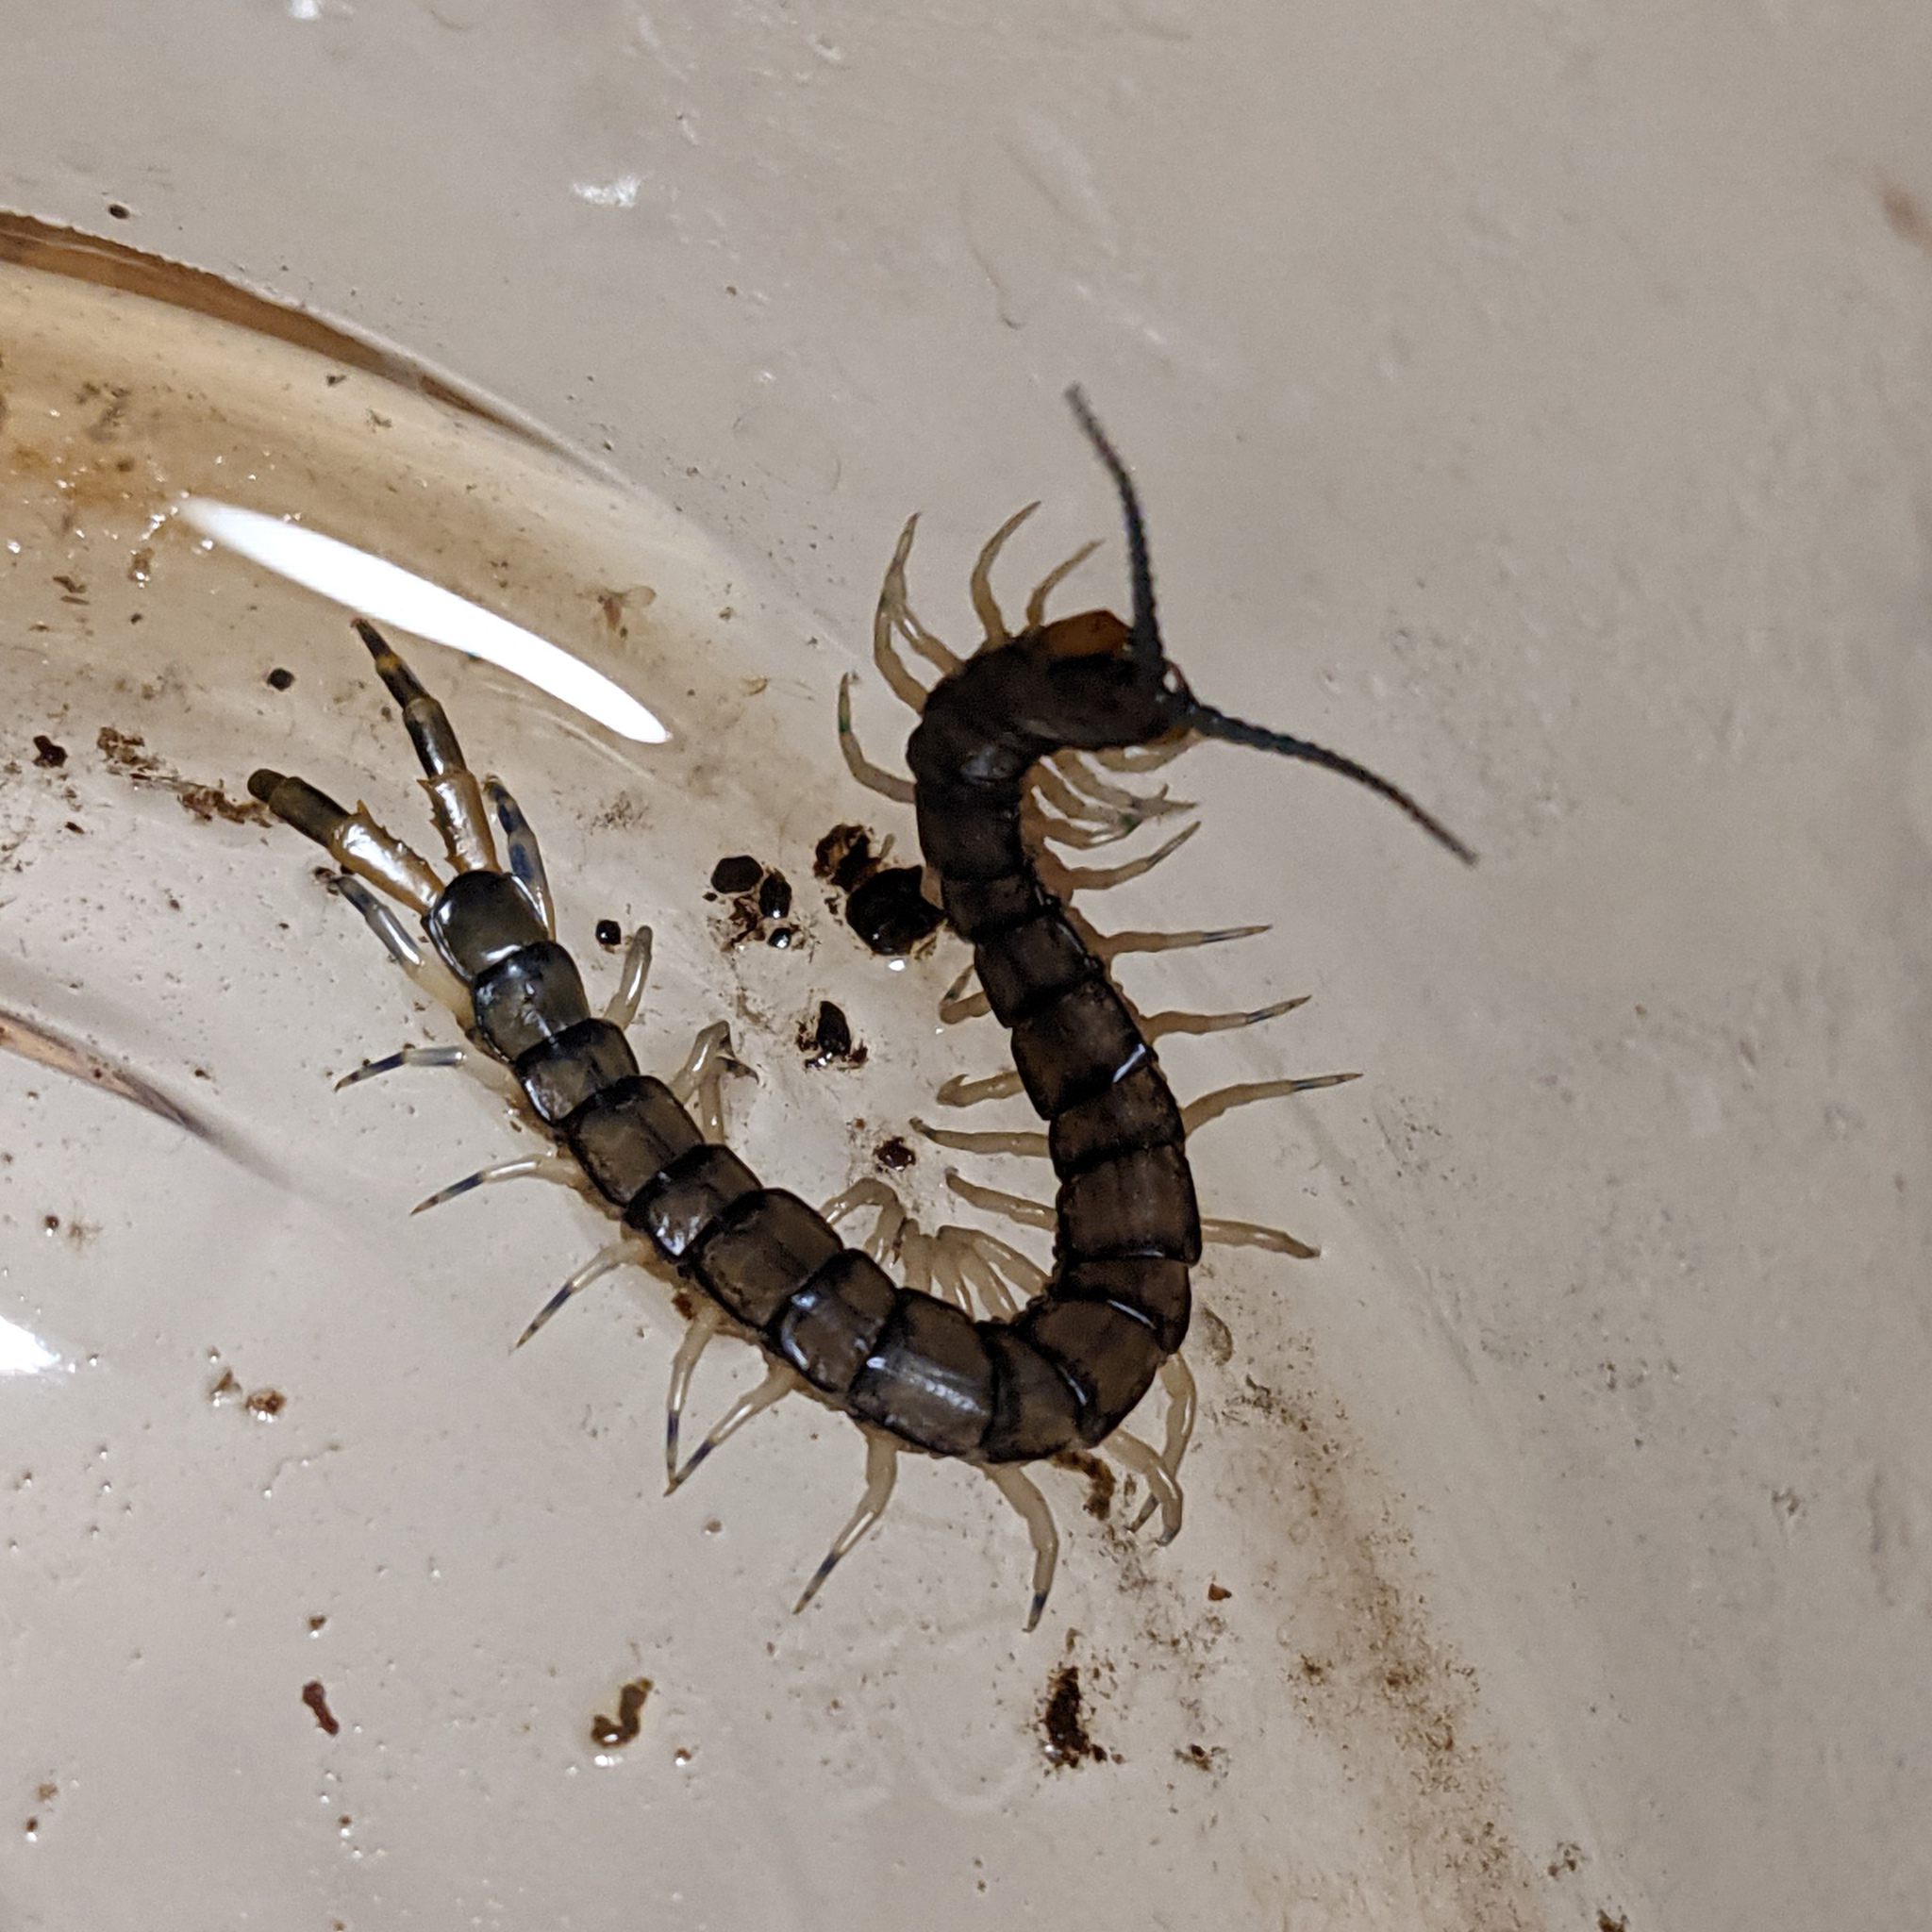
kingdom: Animalia
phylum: Arthropoda
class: Chilopoda
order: Scolopendromorpha
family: Scolopendridae
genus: Hemiscolopendra
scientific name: Hemiscolopendra marginata
